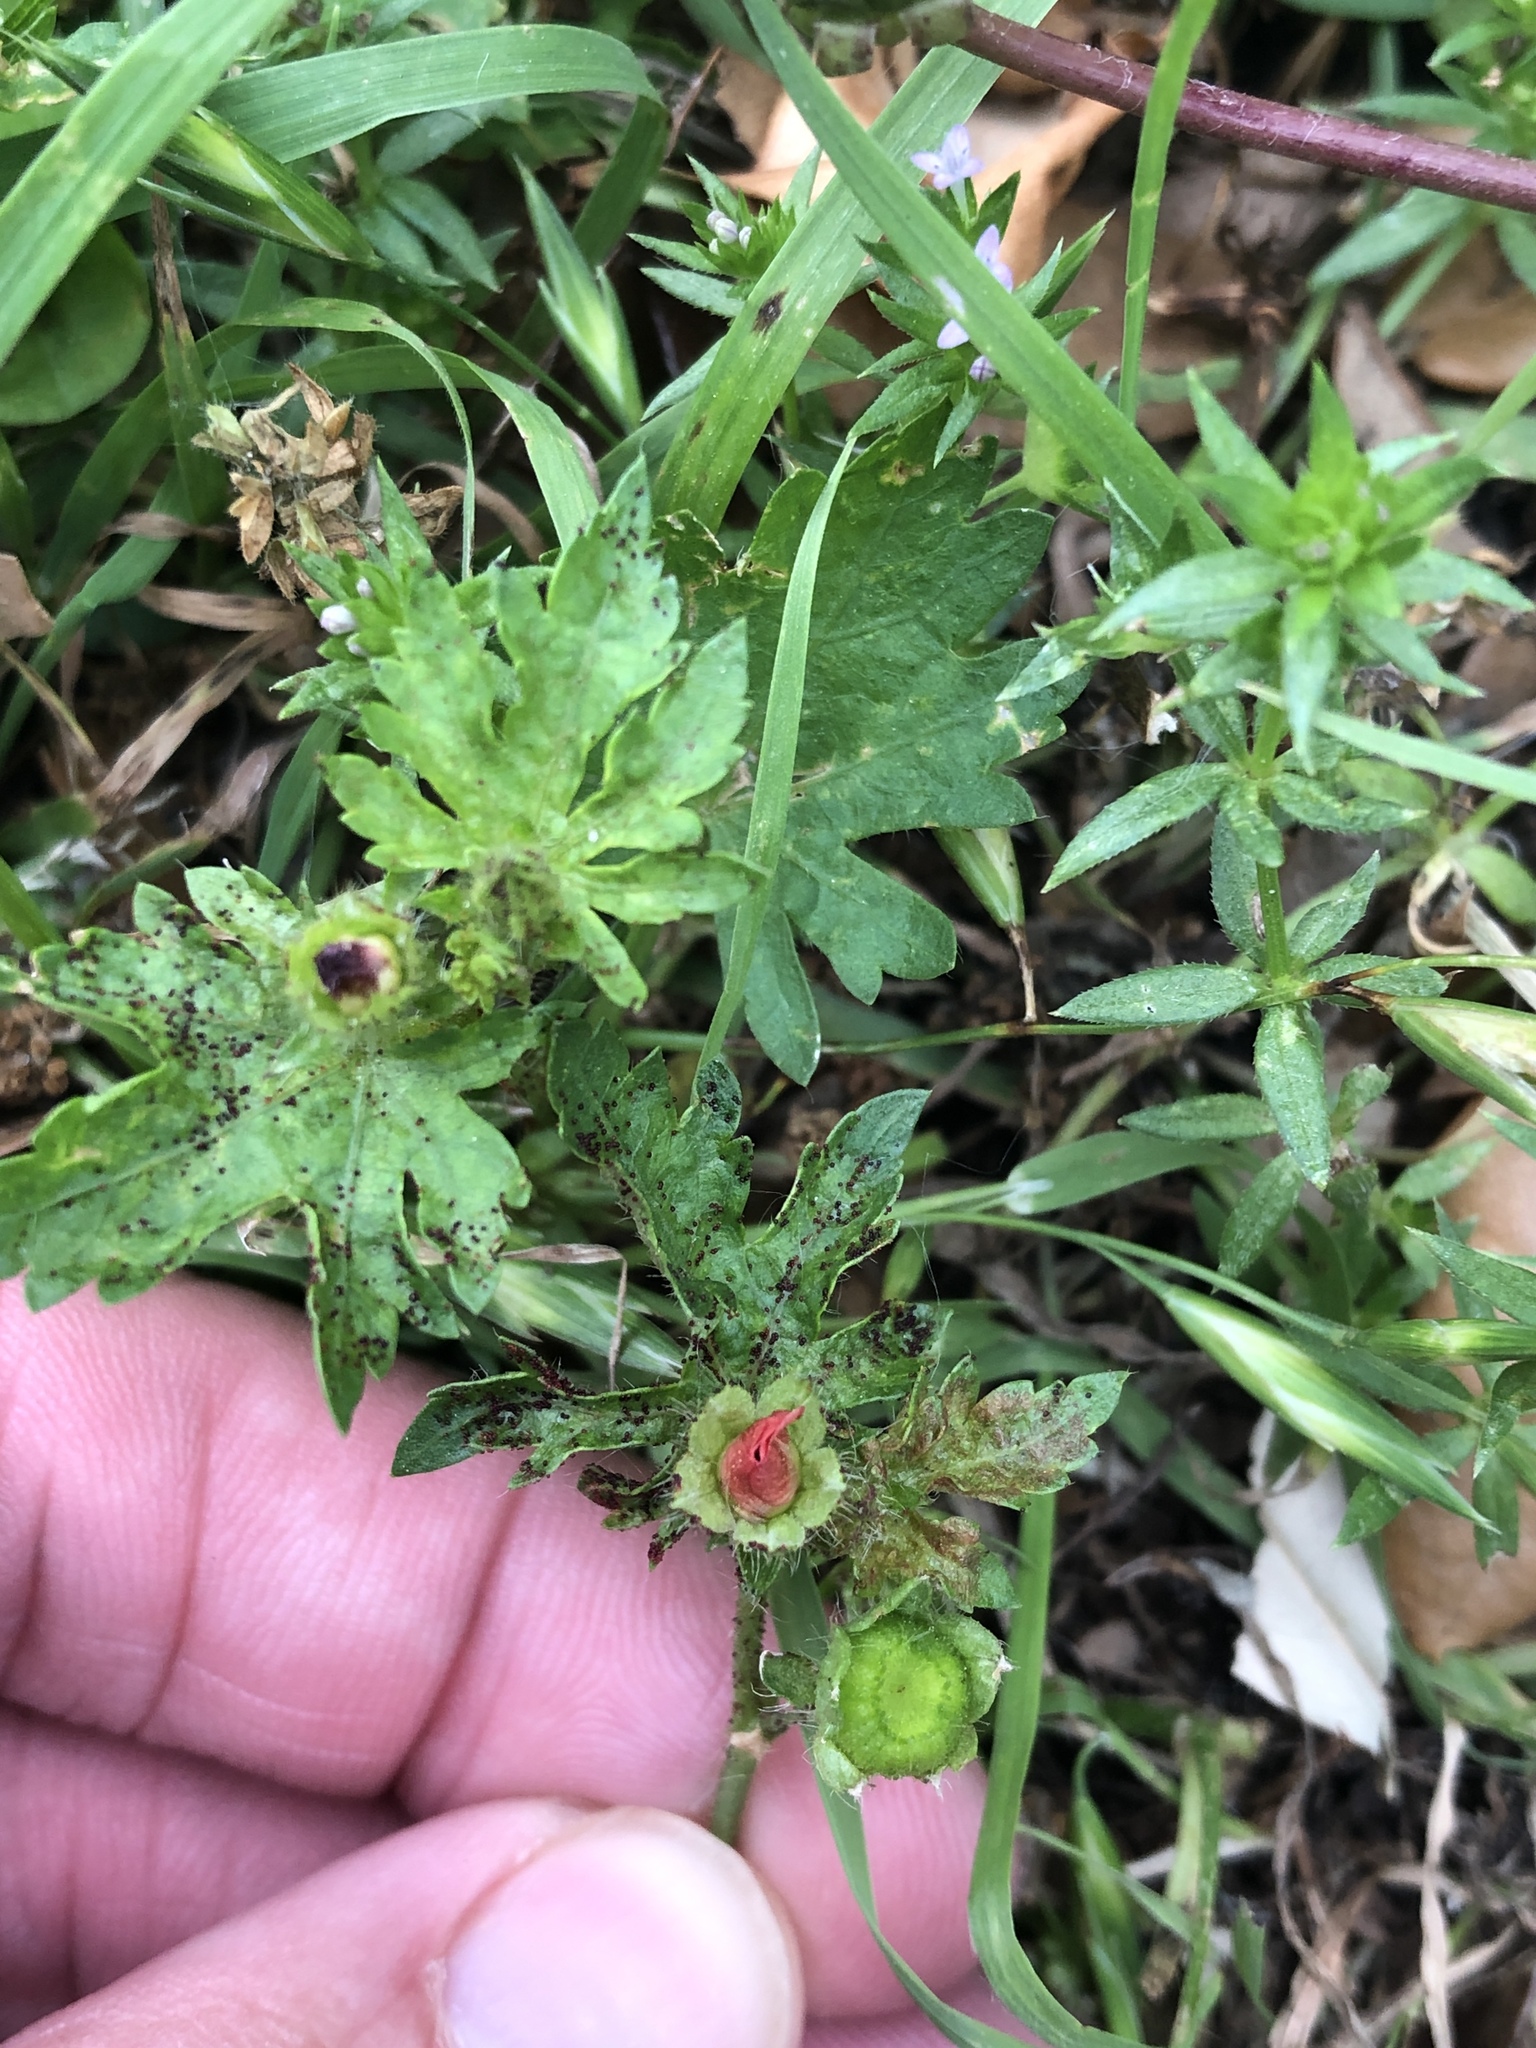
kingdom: Plantae
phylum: Tracheophyta
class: Magnoliopsida
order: Malvales
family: Malvaceae
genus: Modiola
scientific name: Modiola caroliniana
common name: Carolina bristlemallow
